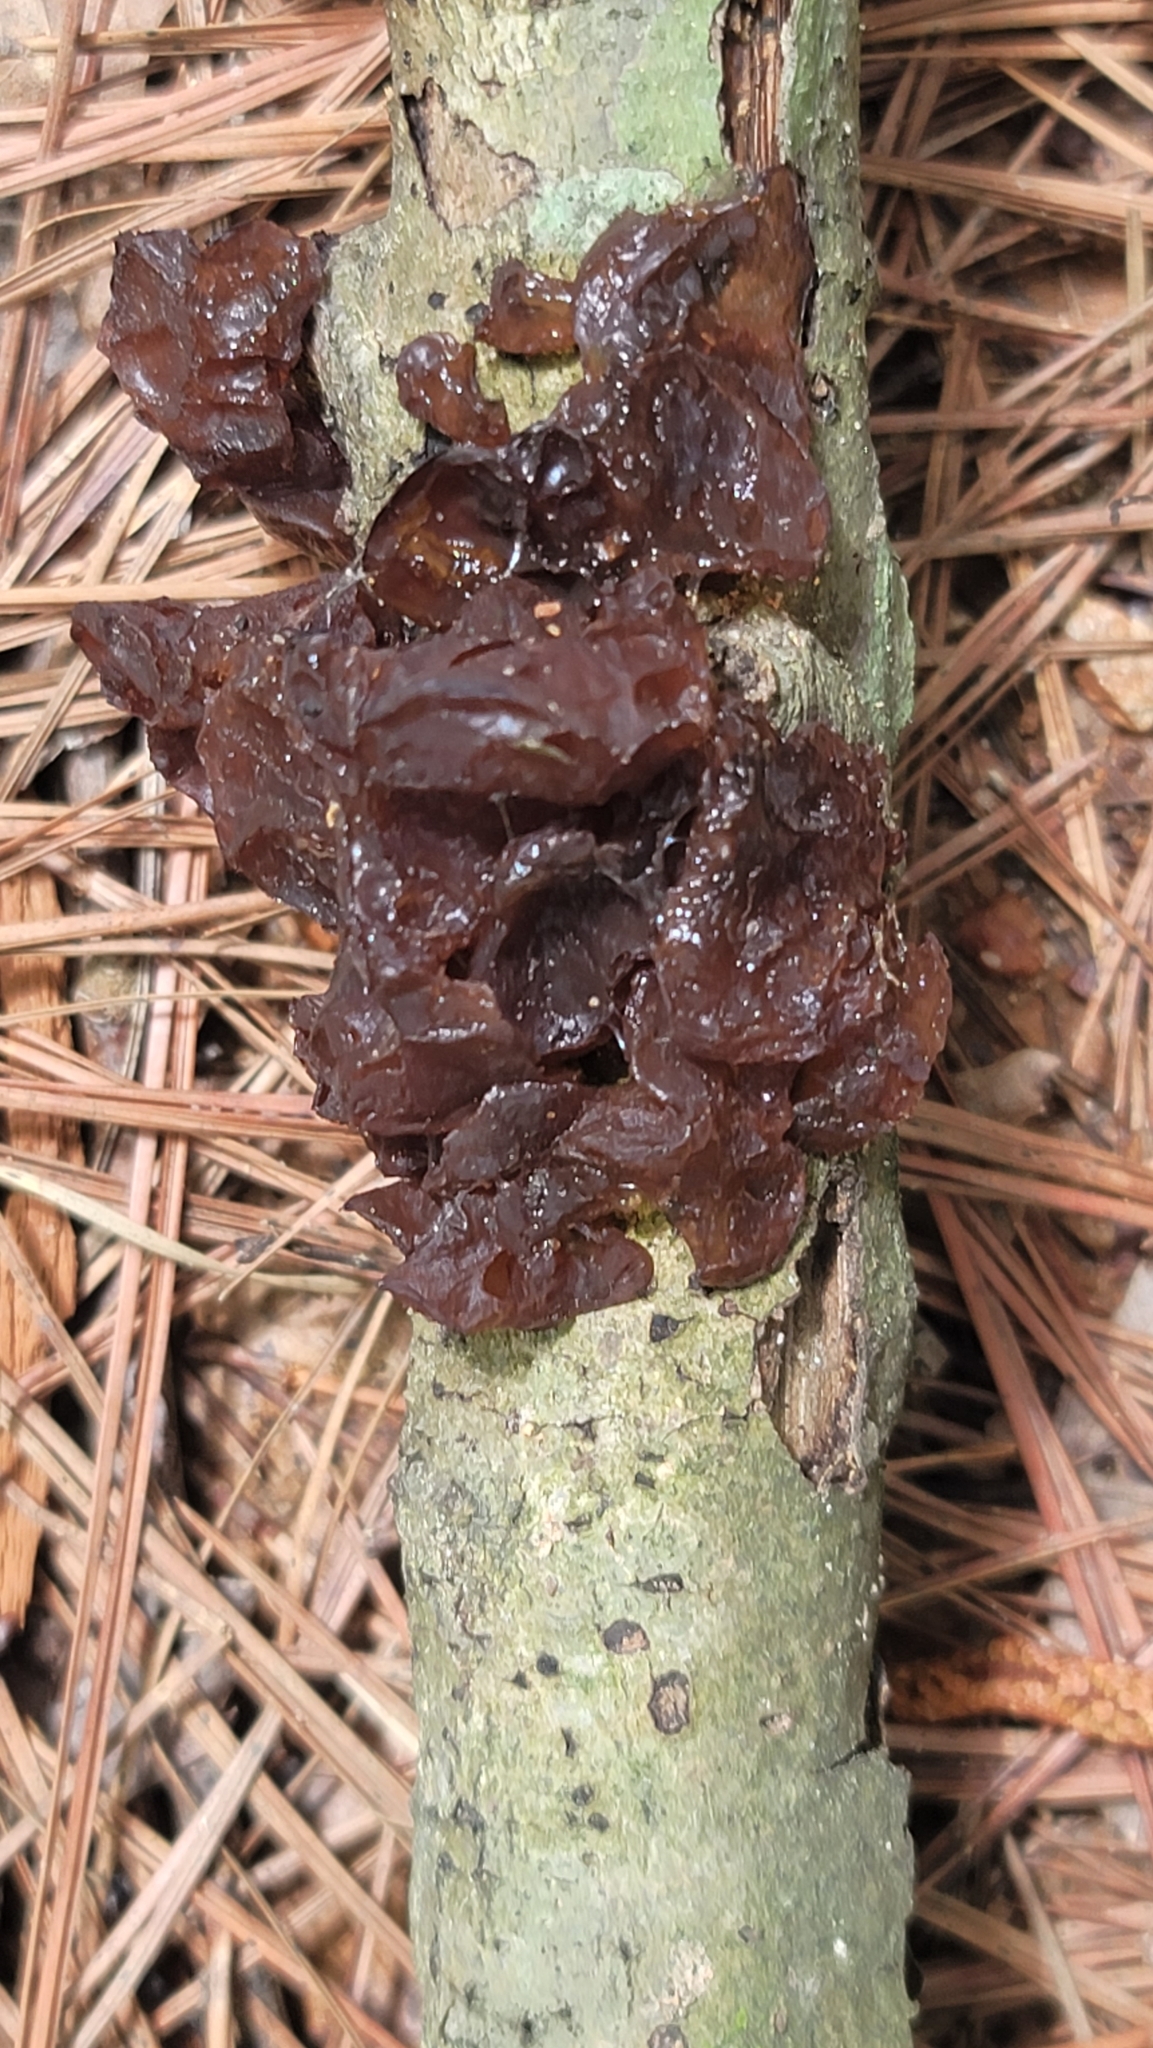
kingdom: Fungi
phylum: Basidiomycota
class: Agaricomycetes
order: Auriculariales
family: Auriculariaceae
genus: Exidia
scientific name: Exidia
